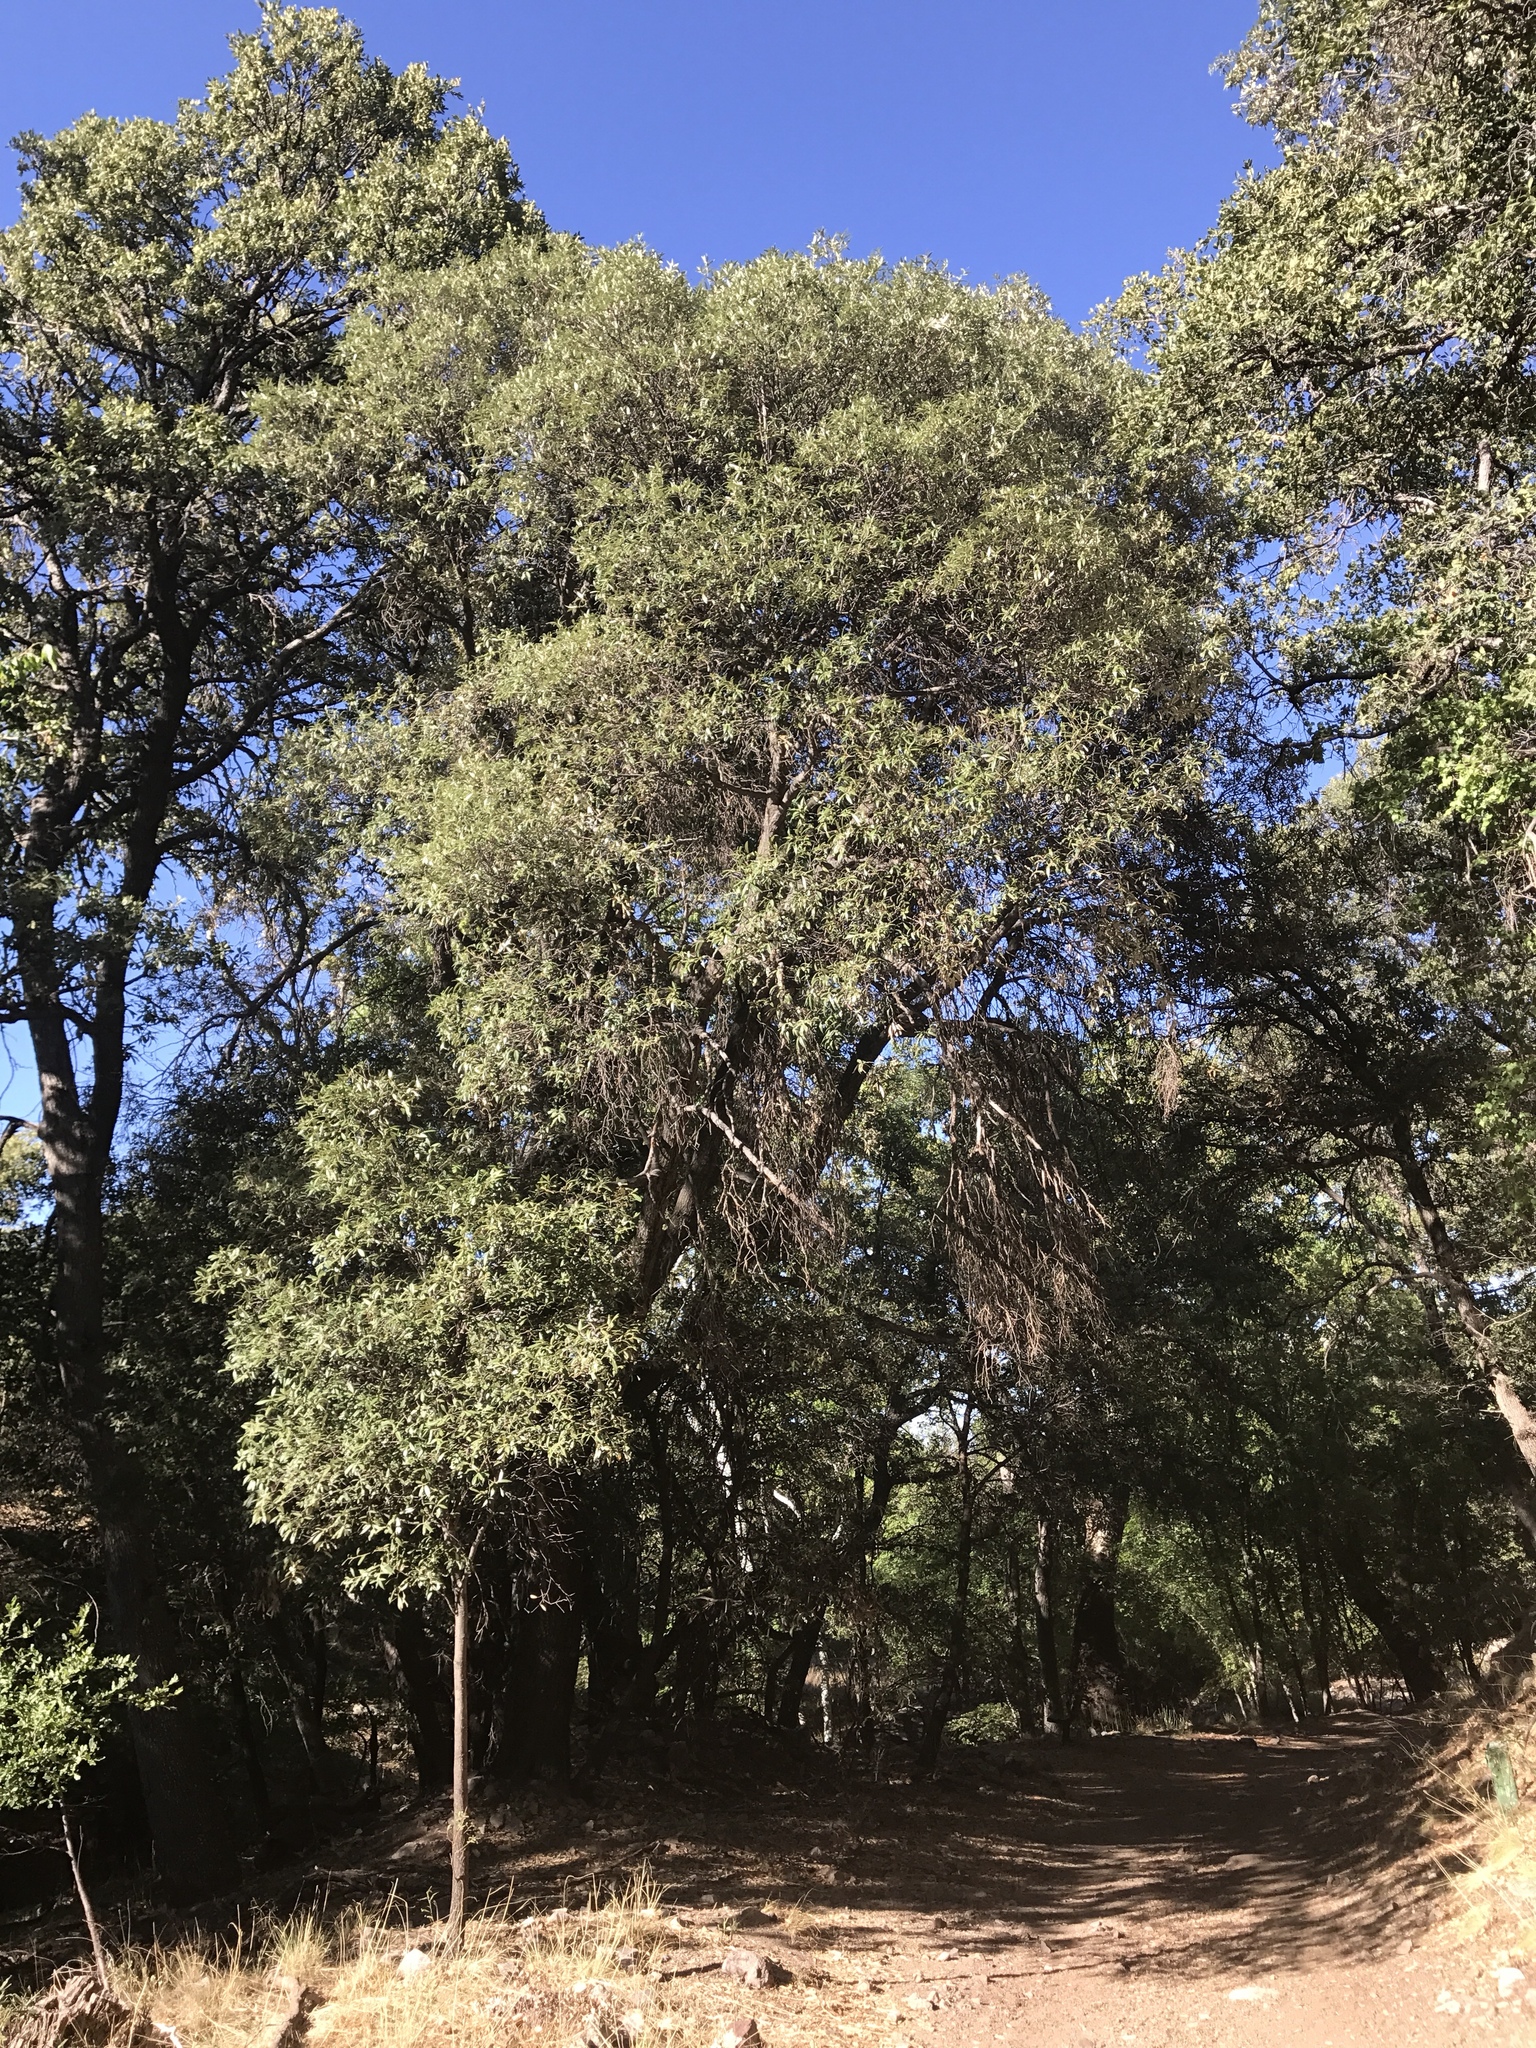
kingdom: Plantae
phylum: Tracheophyta
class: Magnoliopsida
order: Fagales
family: Fagaceae
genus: Quercus
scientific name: Quercus hypoleucoides
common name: Silverleaf oak
